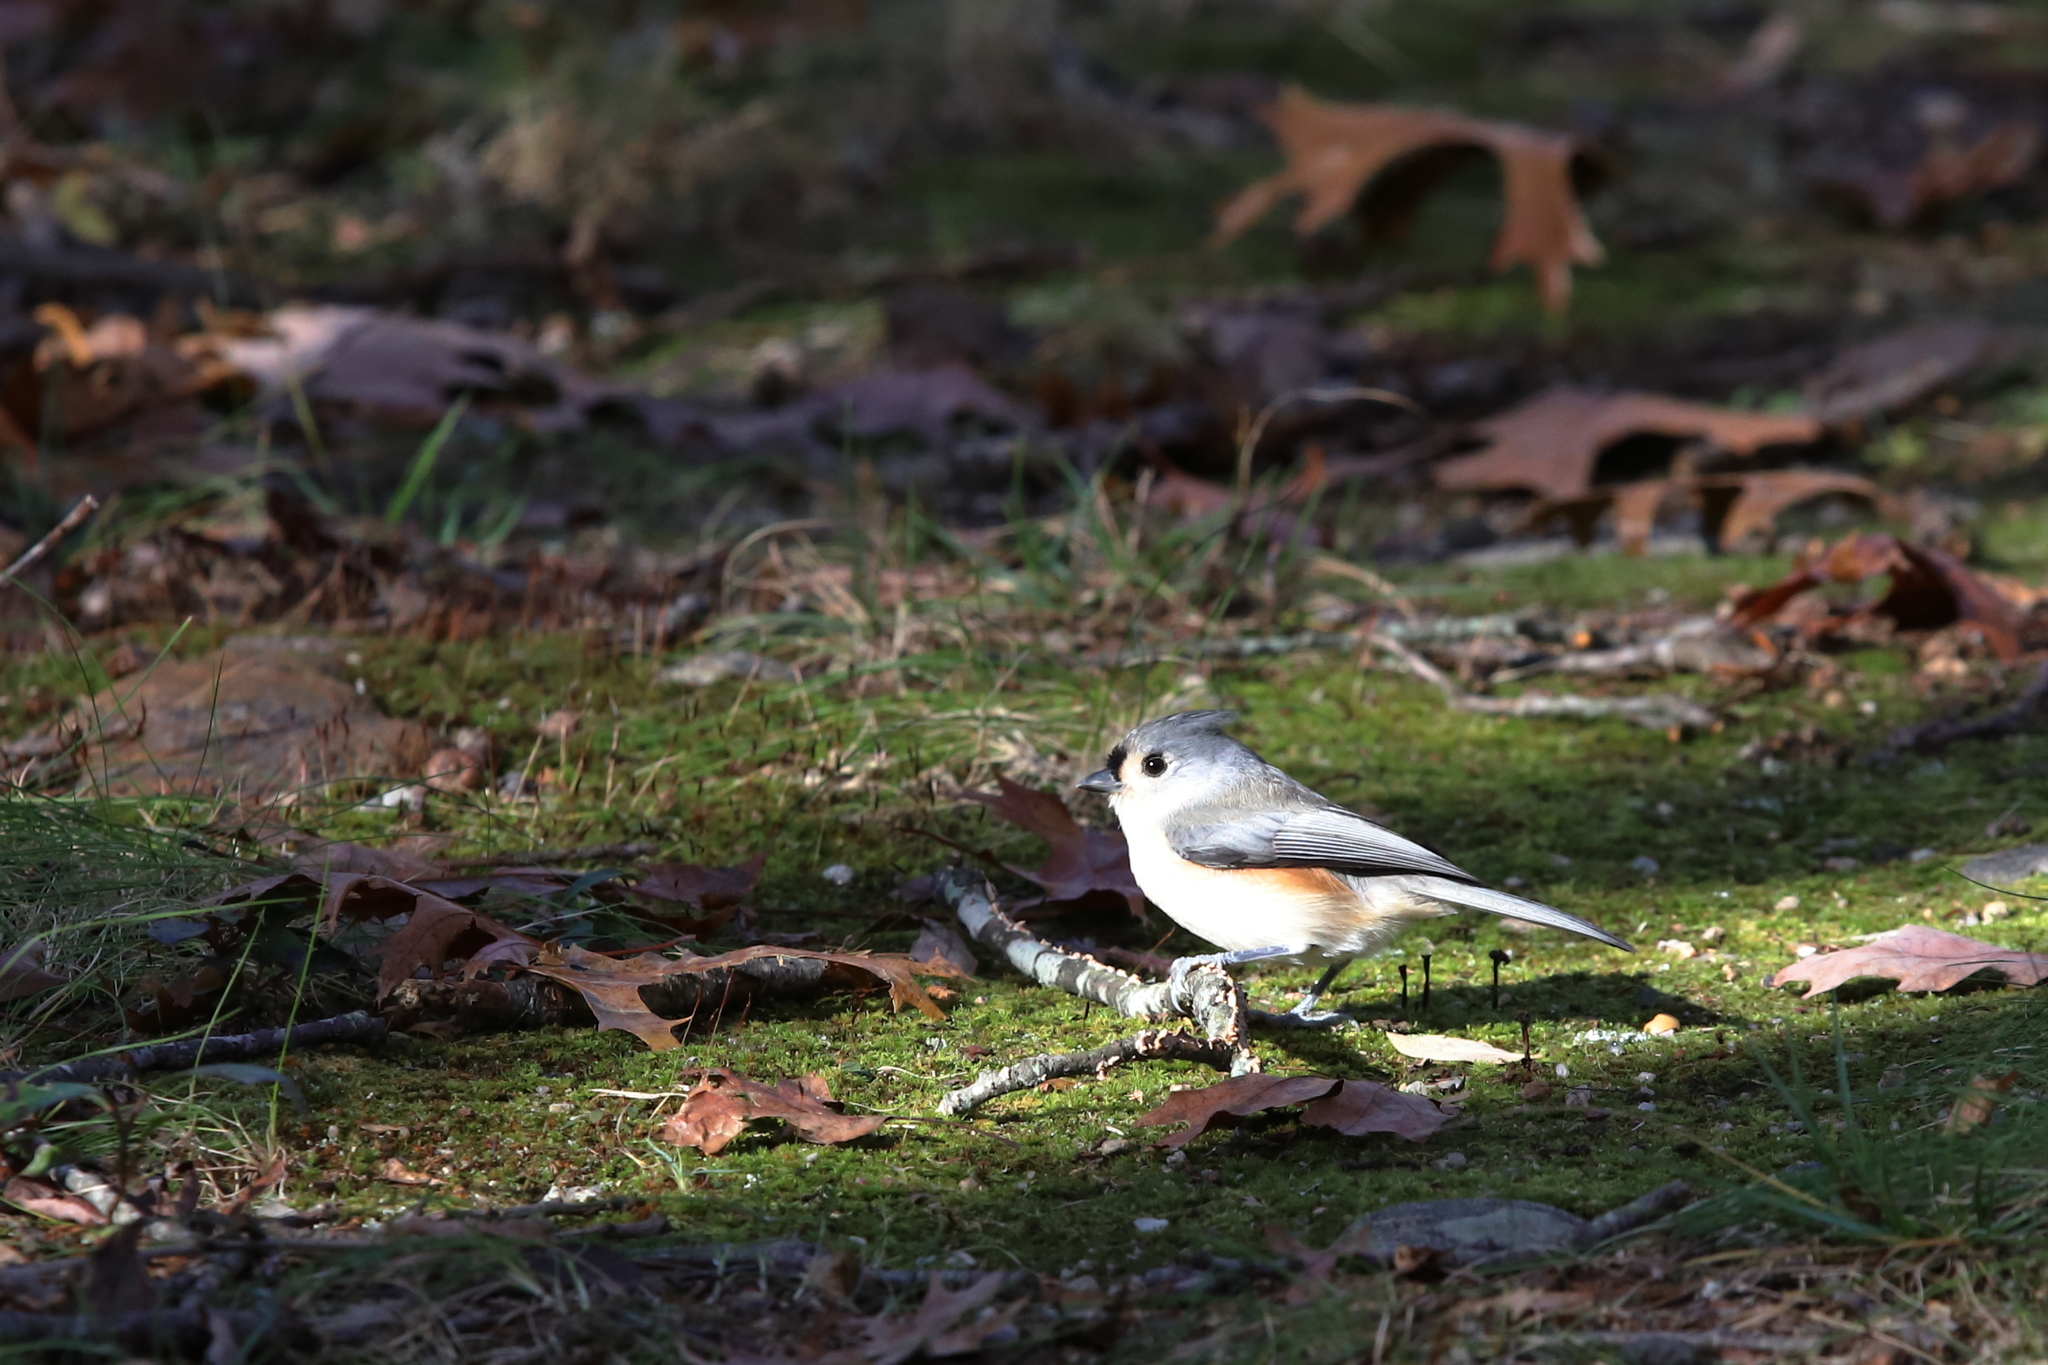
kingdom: Animalia
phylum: Chordata
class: Aves
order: Passeriformes
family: Paridae
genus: Baeolophus
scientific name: Baeolophus bicolor
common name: Tufted titmouse
